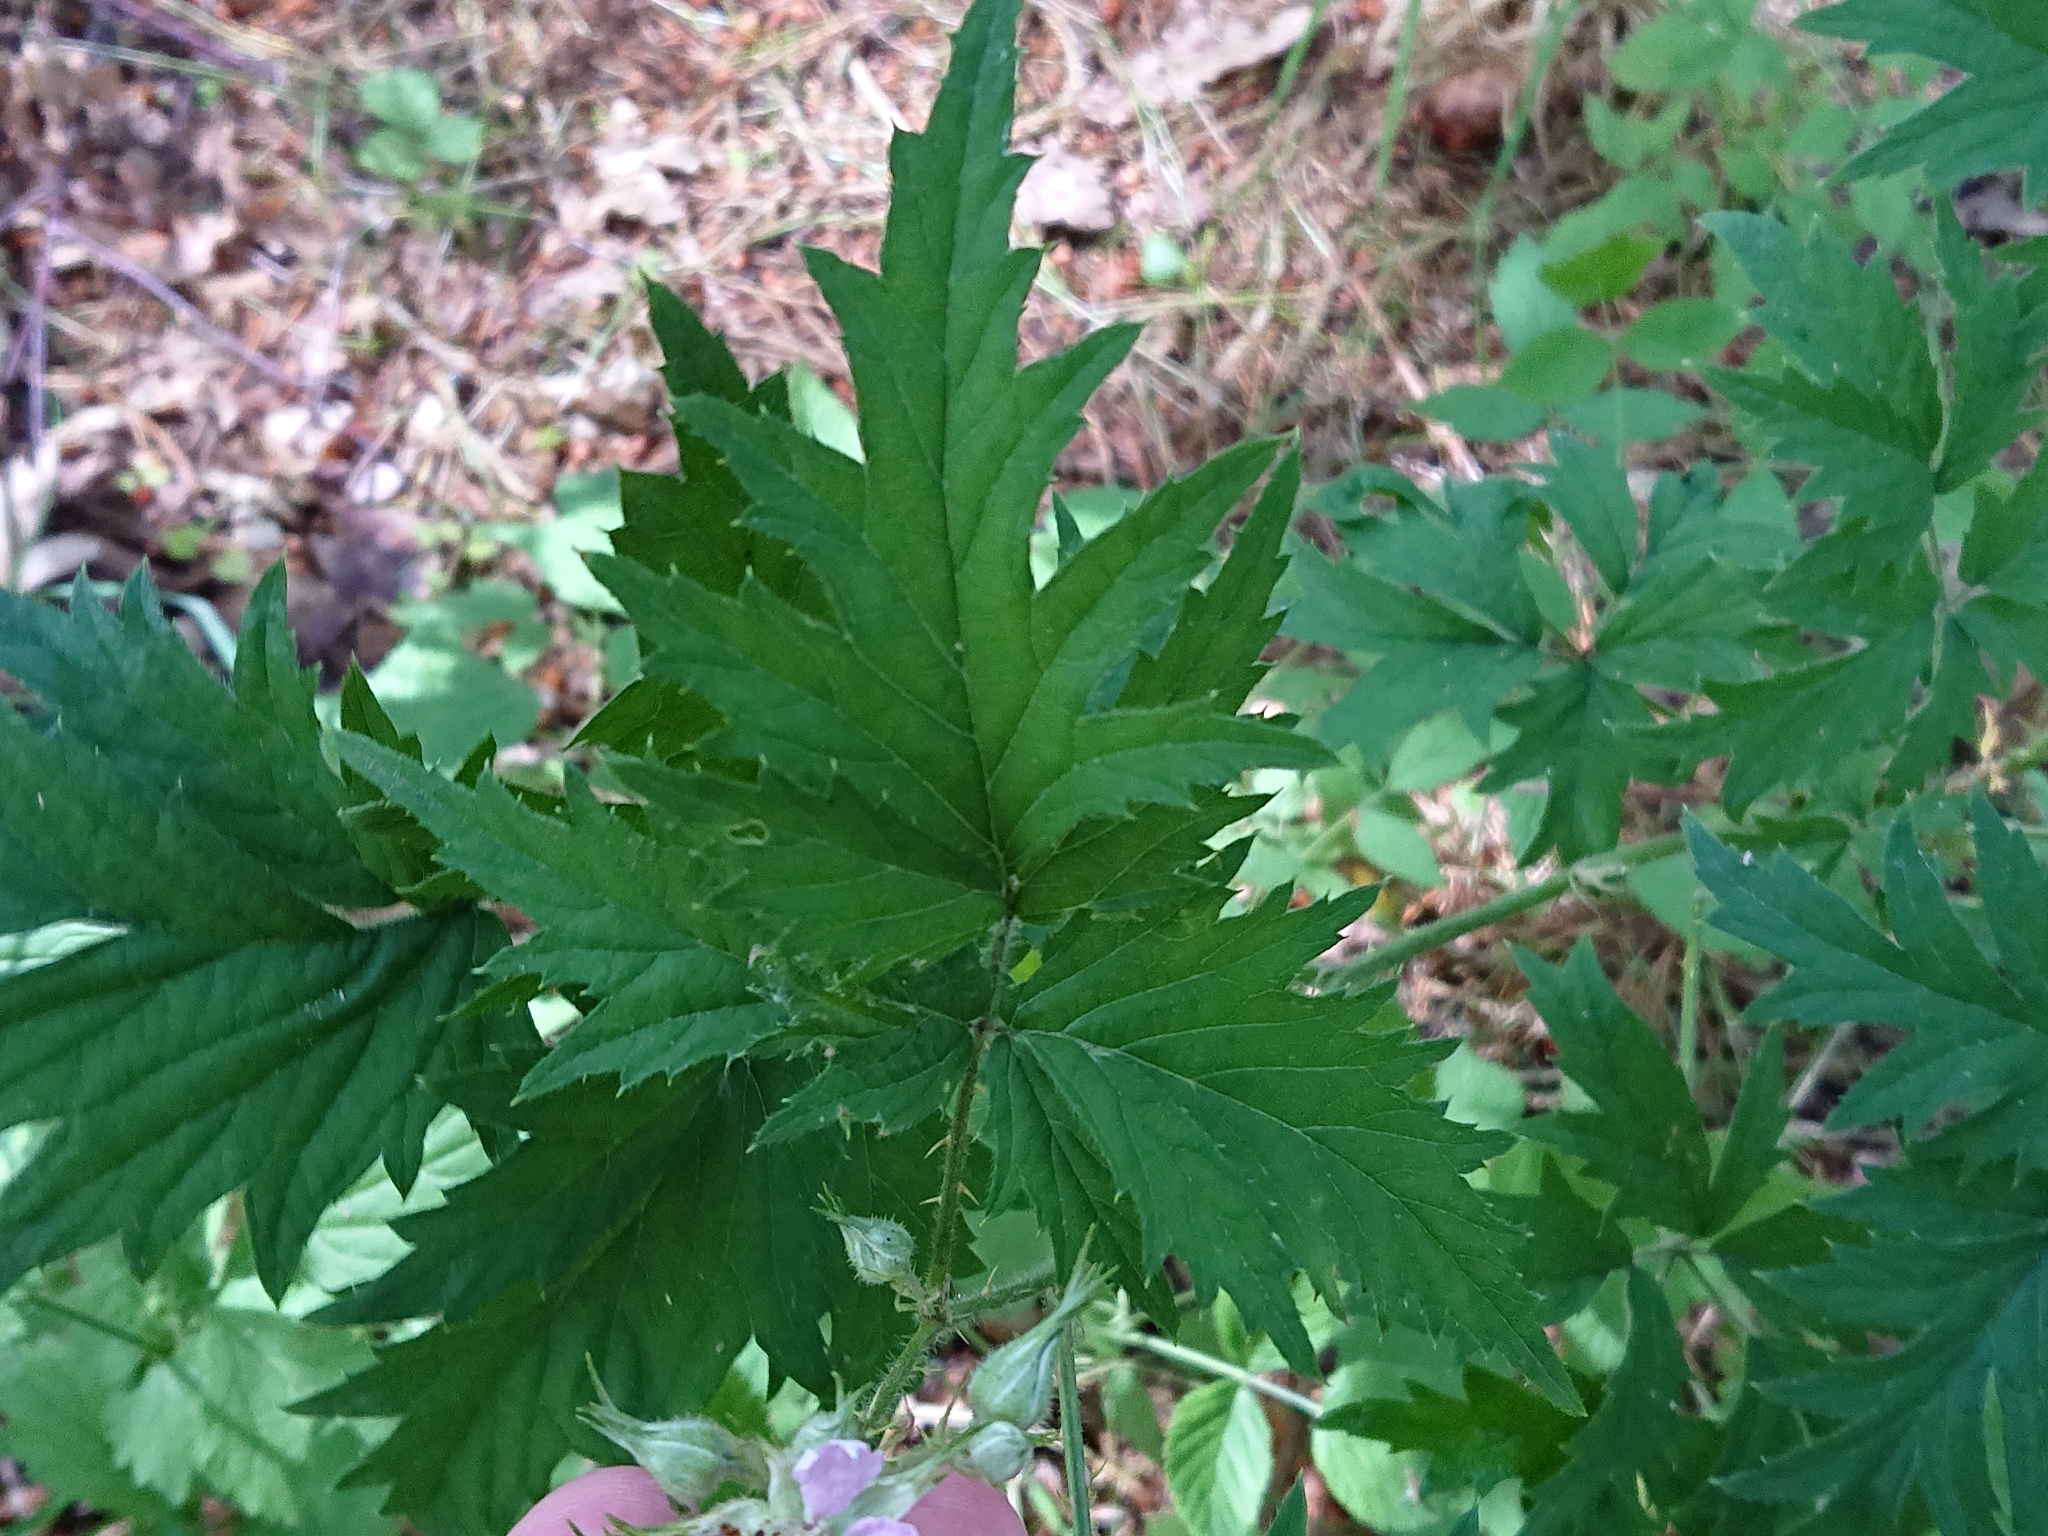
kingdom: Plantae
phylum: Tracheophyta
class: Magnoliopsida
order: Rosales
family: Rosaceae
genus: Rubus
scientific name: Rubus laciniatus
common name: Evergreen blackberry
